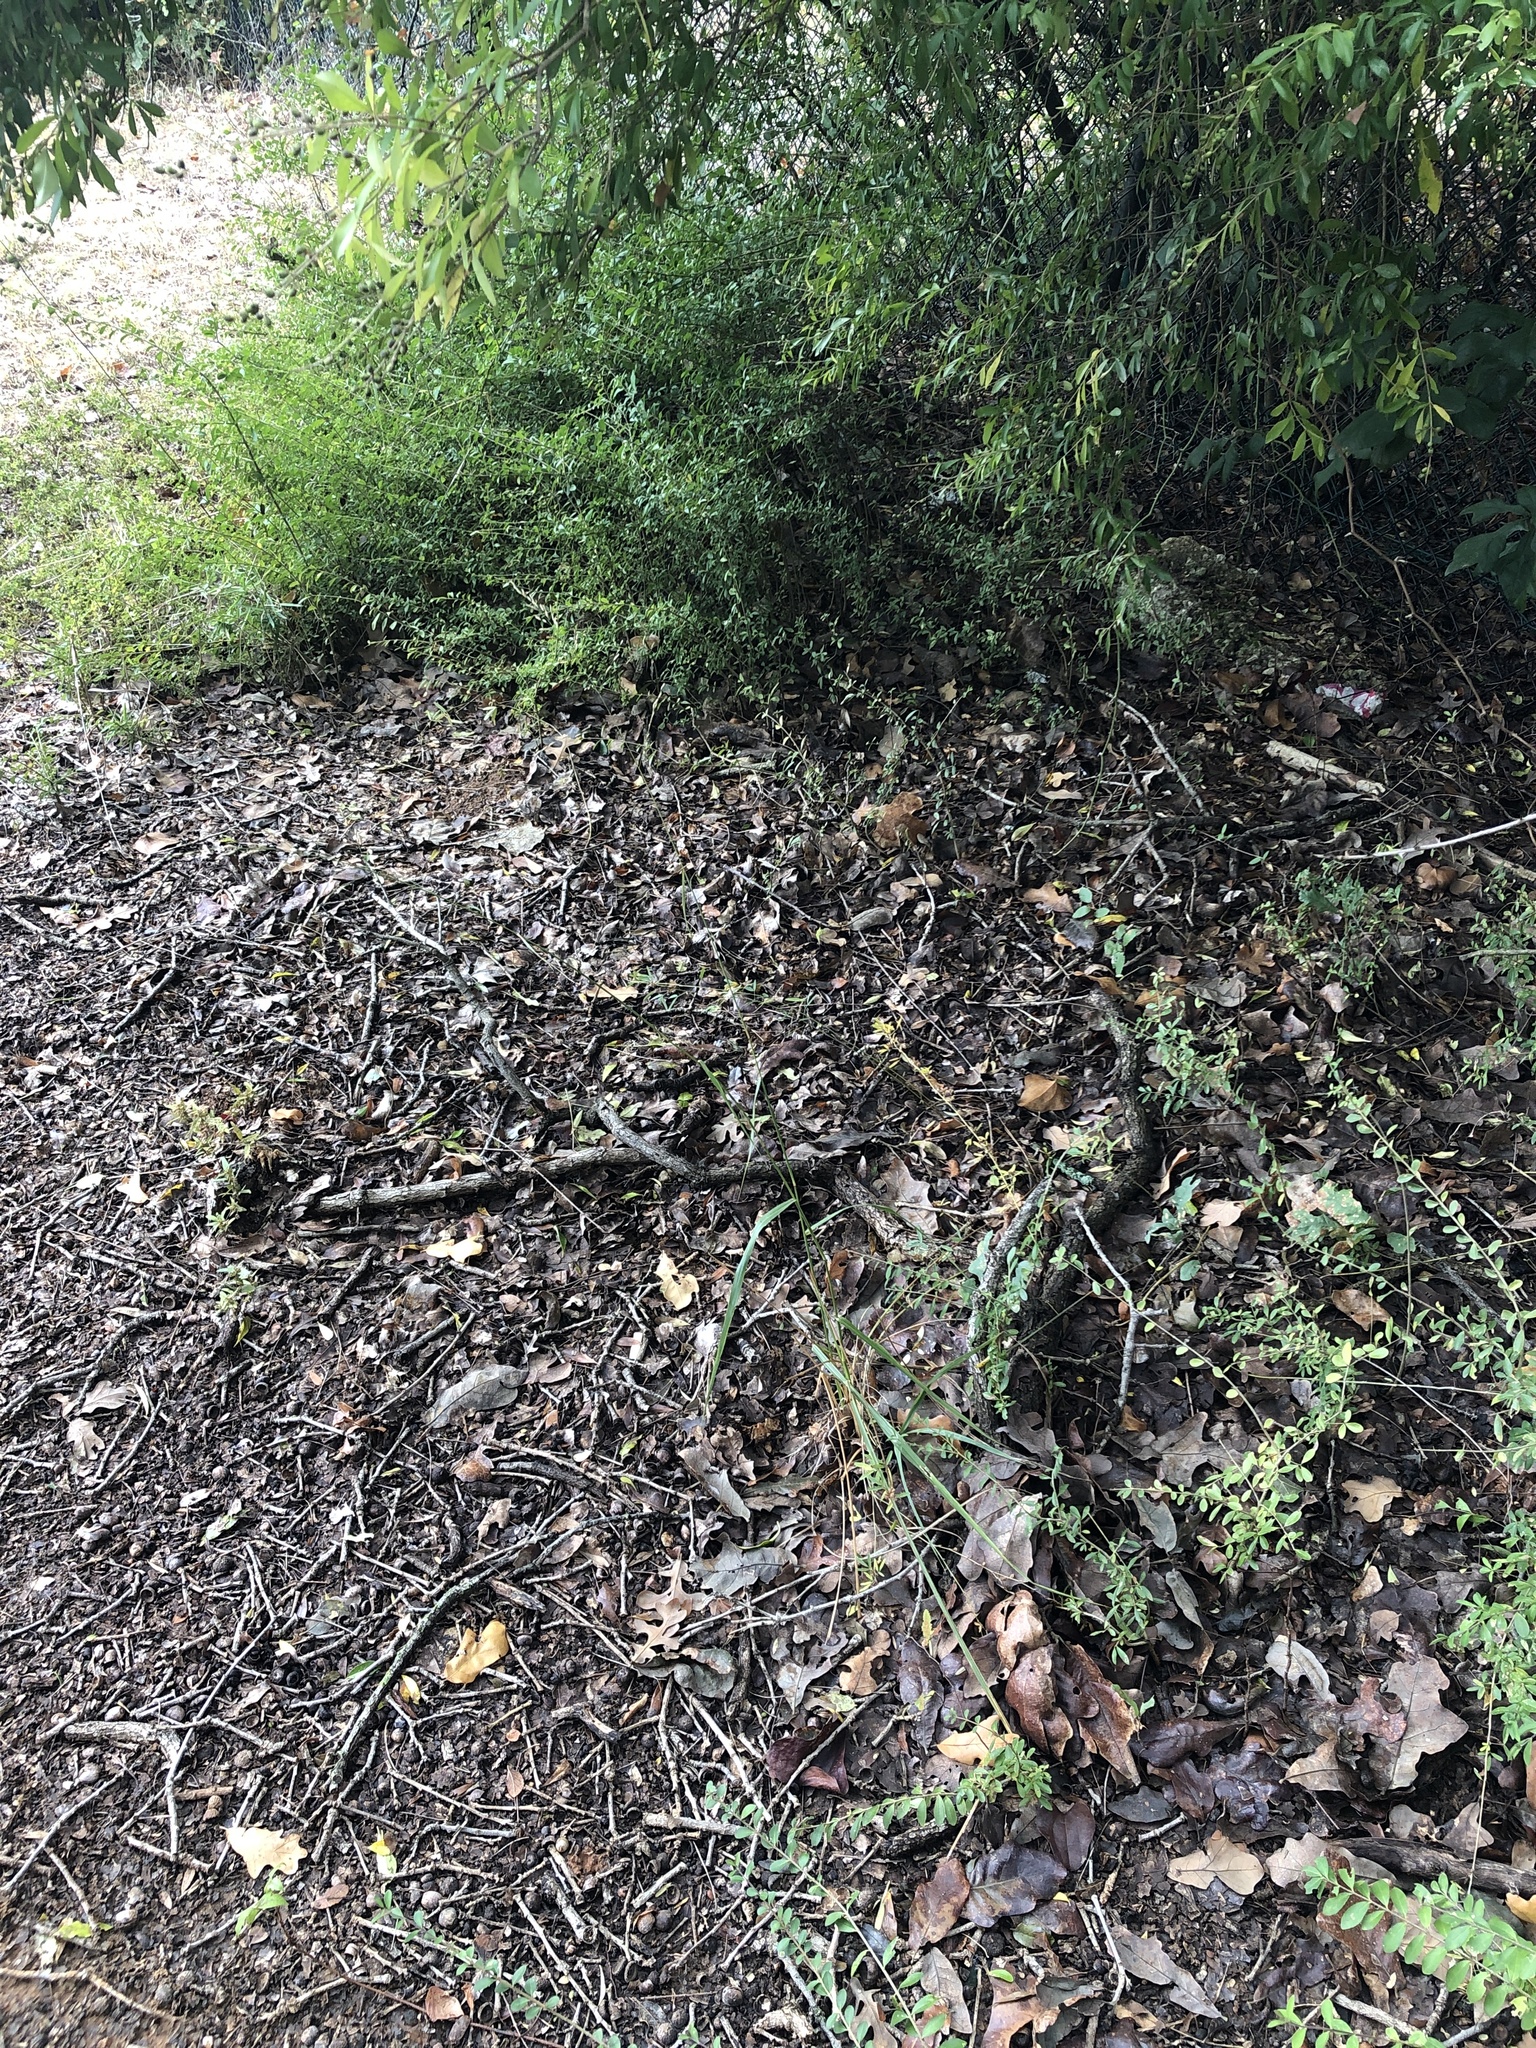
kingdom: Plantae
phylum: Tracheophyta
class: Liliopsida
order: Poales
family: Poaceae
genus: Tridens
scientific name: Tridens flavus
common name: Purpletop
